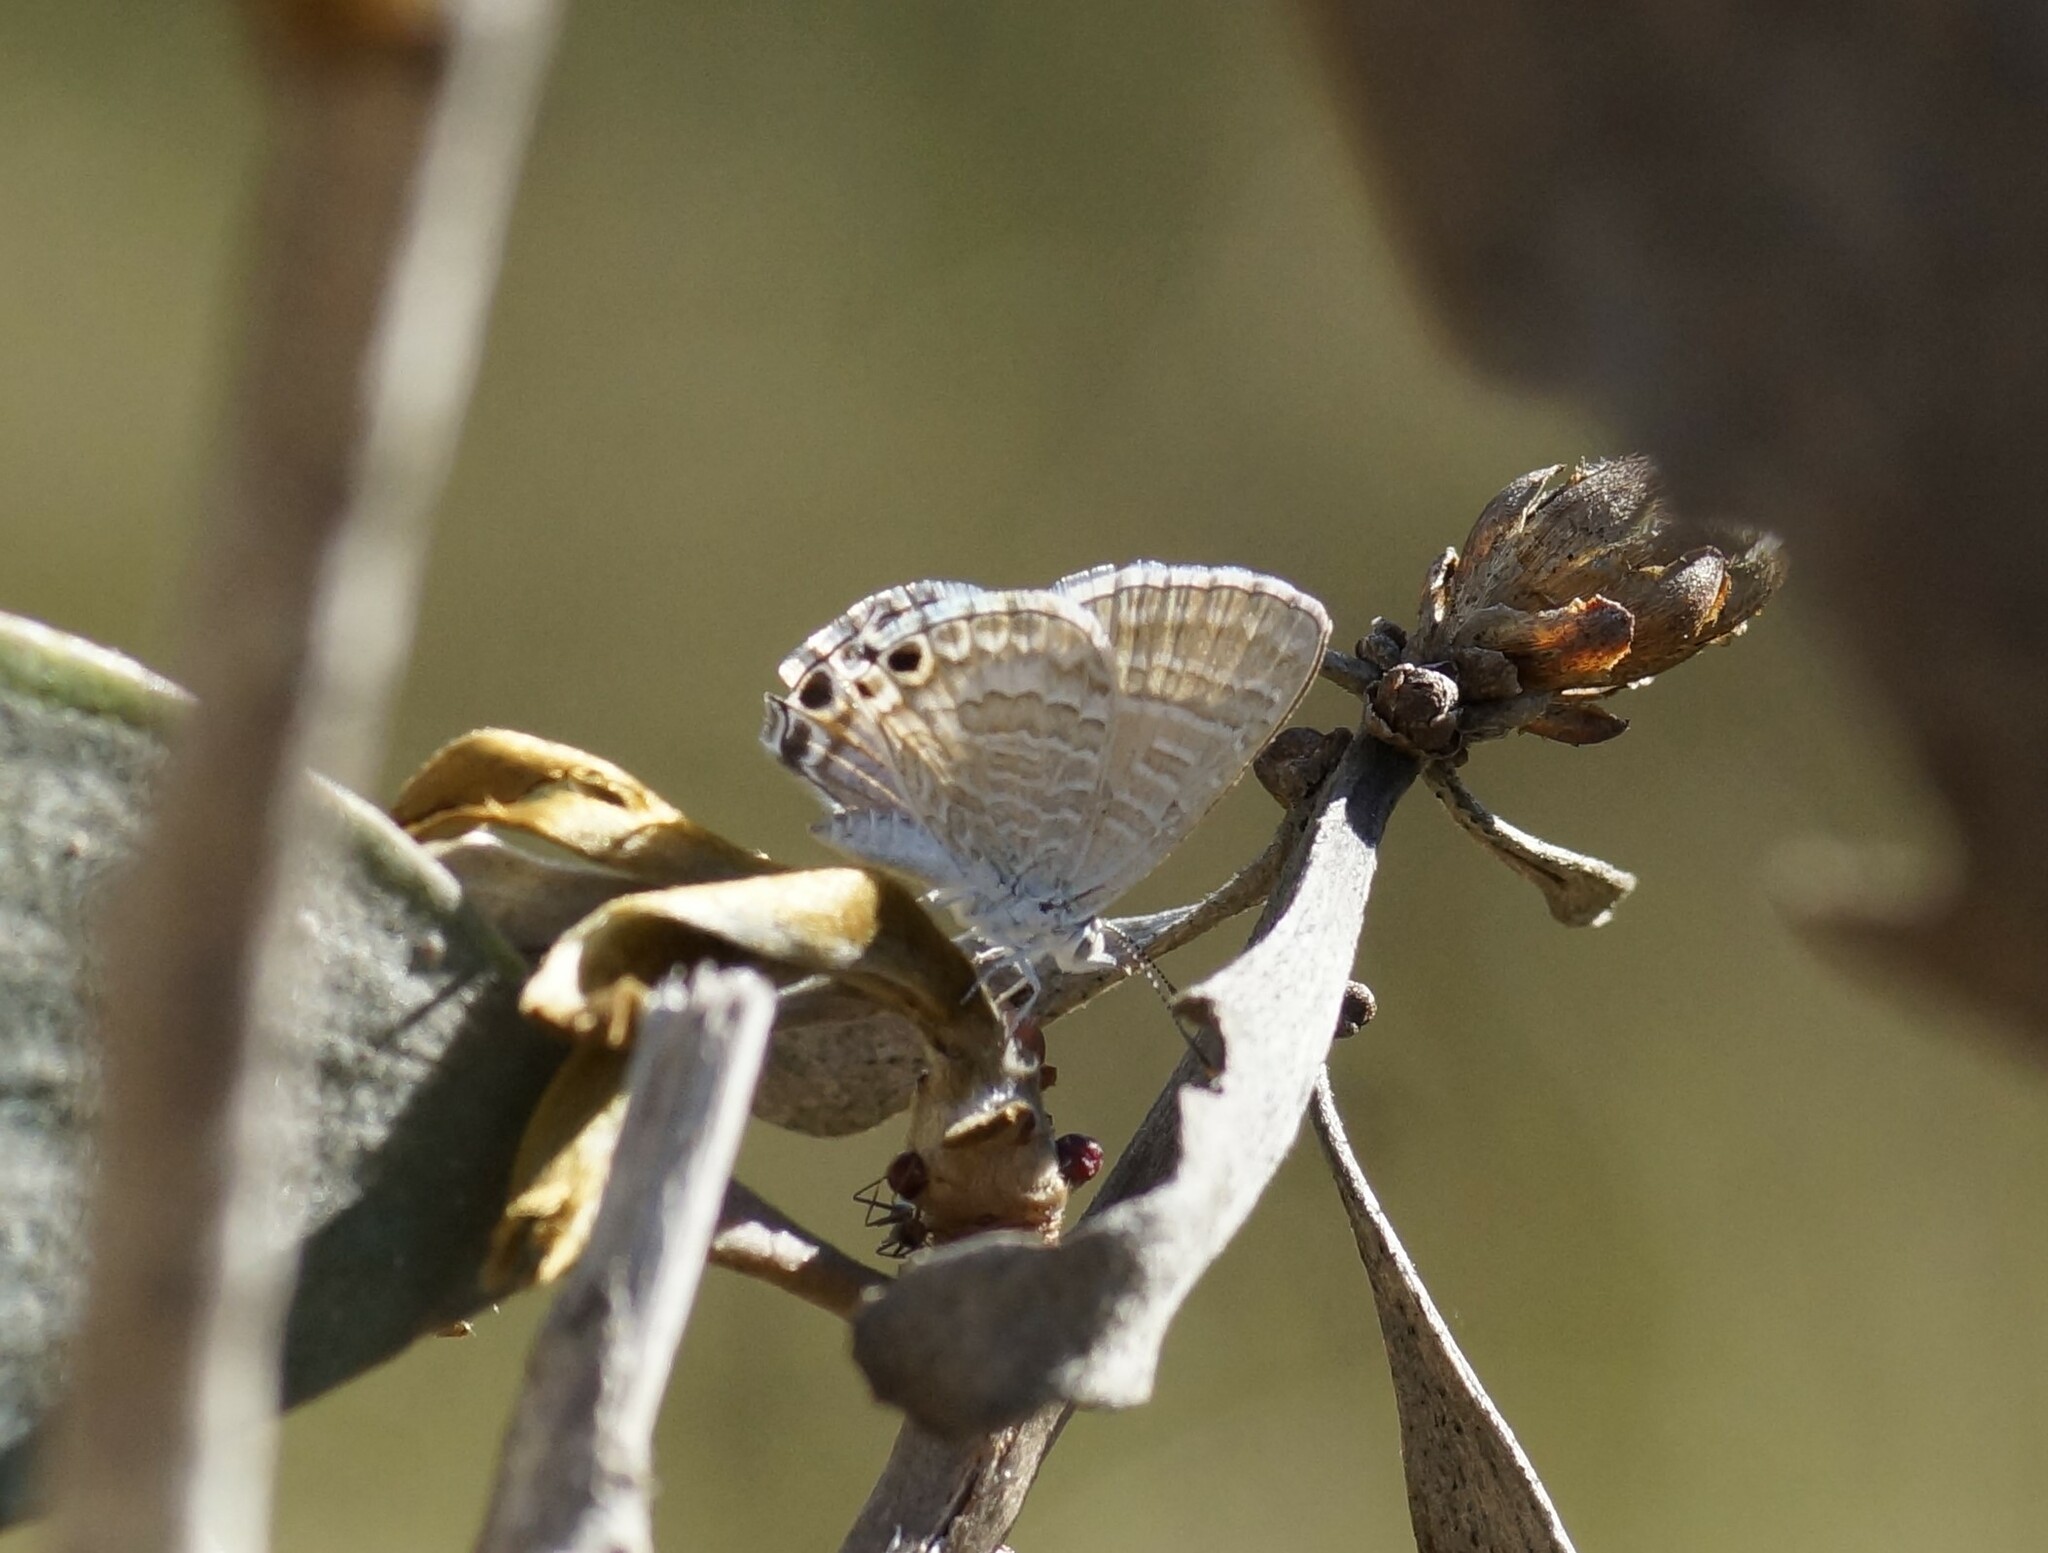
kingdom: Animalia
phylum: Arthropoda
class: Insecta
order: Lepidoptera
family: Lycaenidae
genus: Theclinesthes
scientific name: Theclinesthes miskini
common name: Wattle blue
